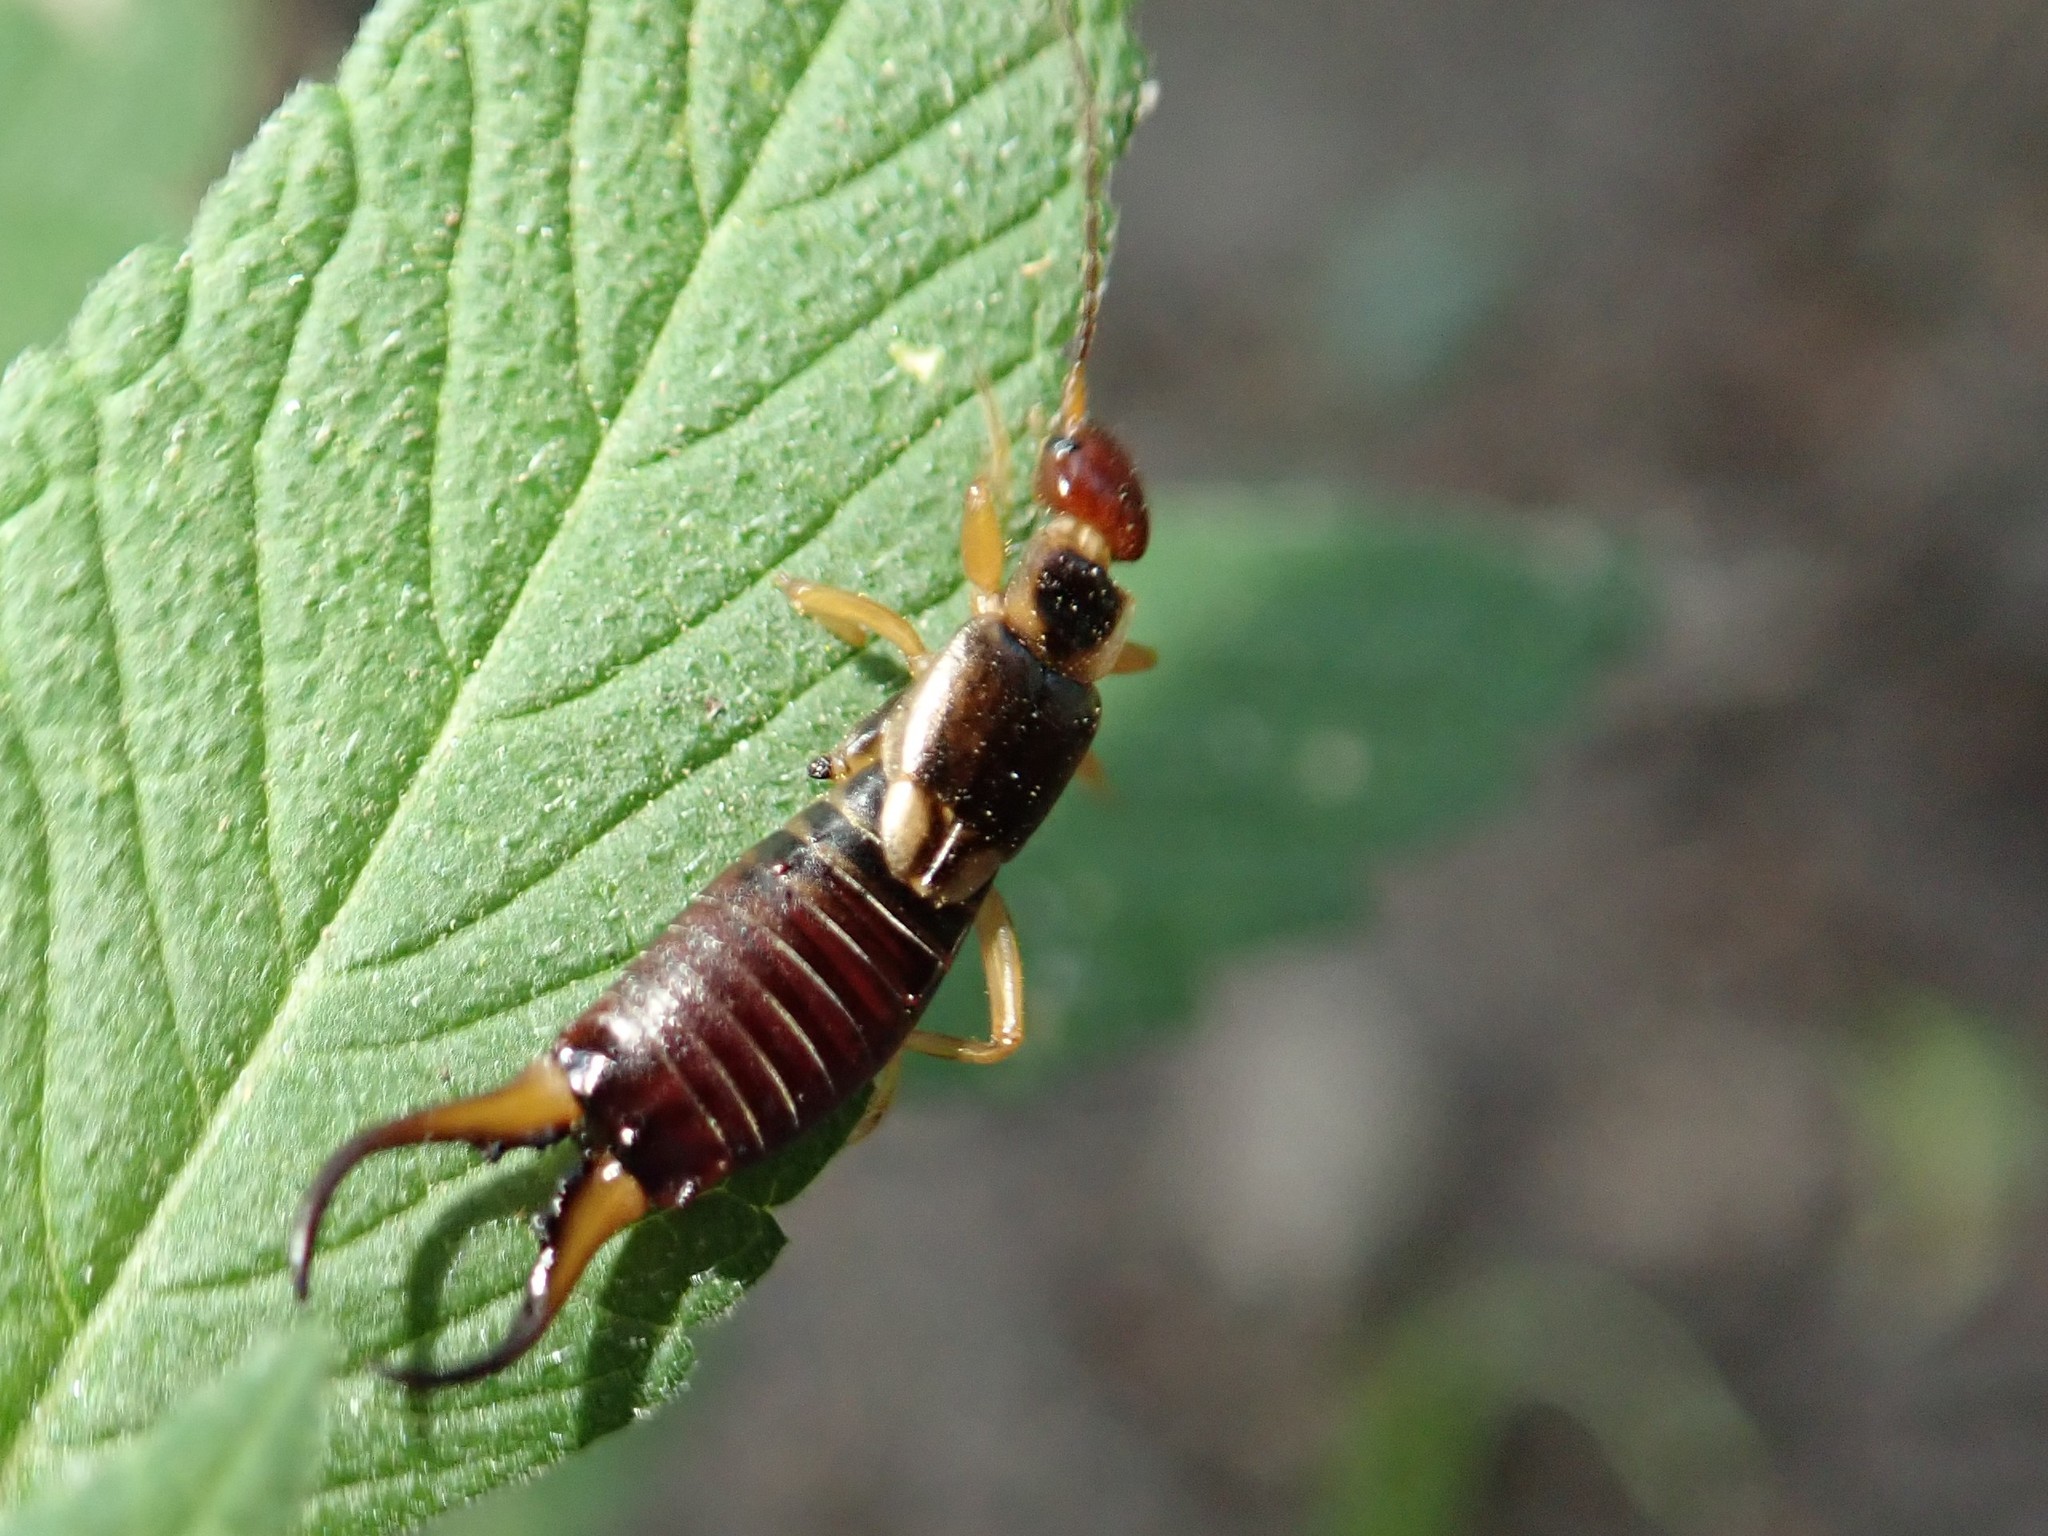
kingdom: Animalia
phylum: Arthropoda
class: Insecta
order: Dermaptera
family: Forficulidae
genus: Forficula
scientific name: Forficula
